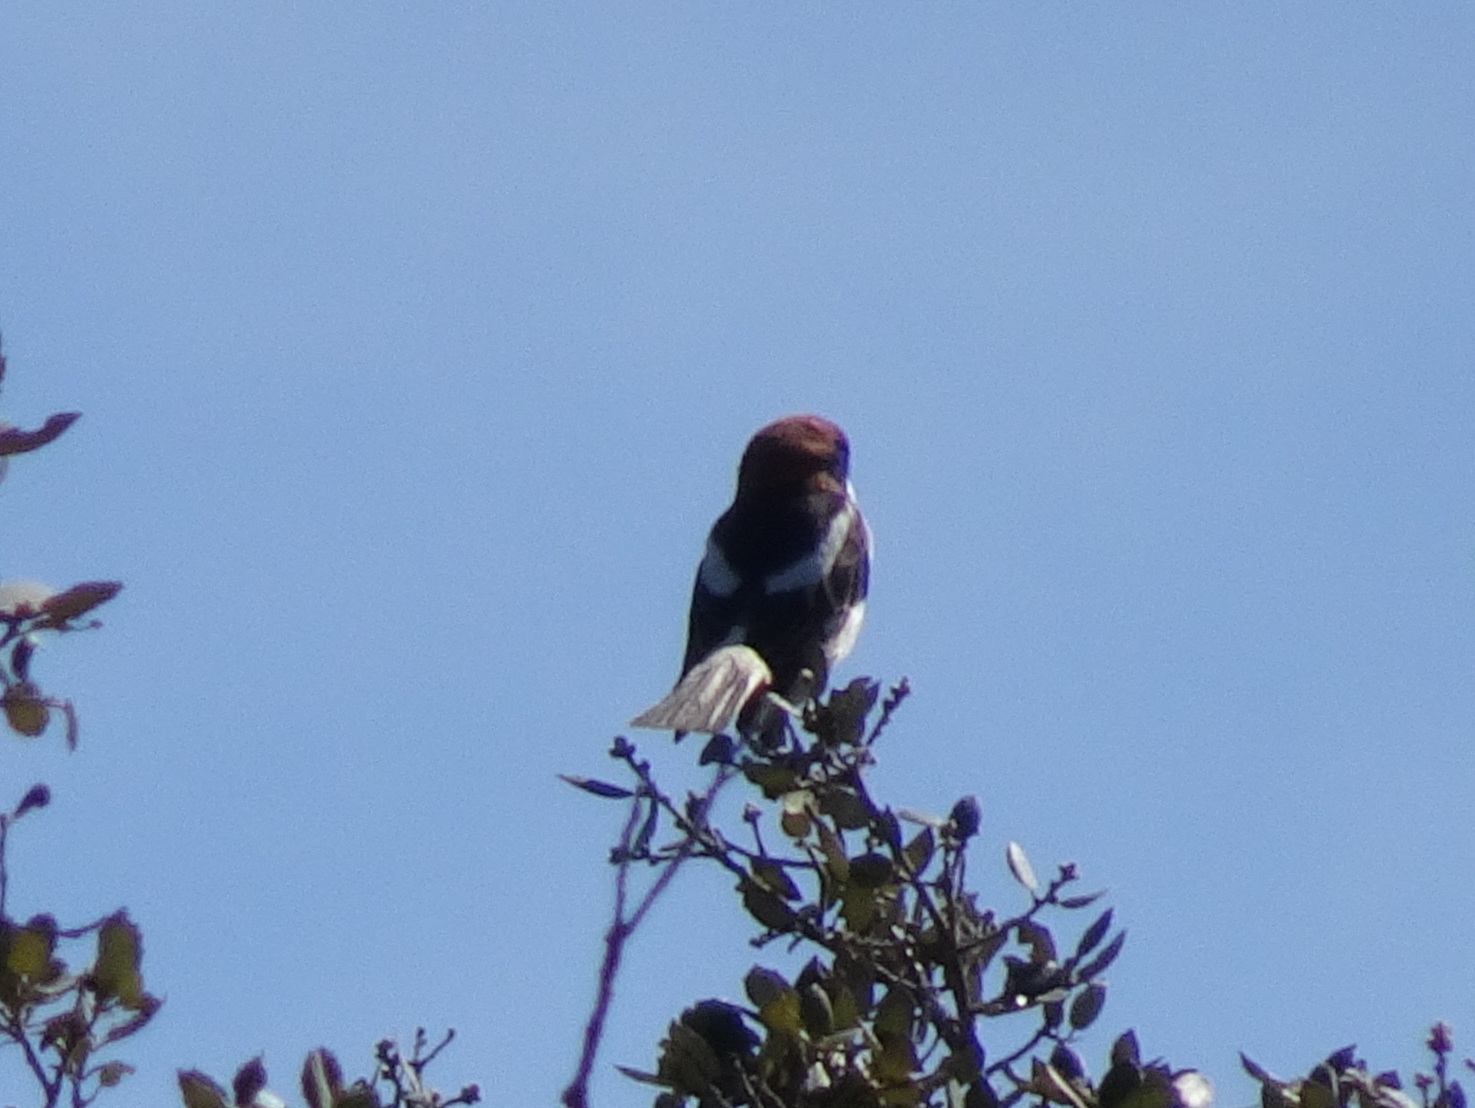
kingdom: Animalia
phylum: Chordata
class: Aves
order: Passeriformes
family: Laniidae
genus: Lanius
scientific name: Lanius senator
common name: Woodchat shrike
